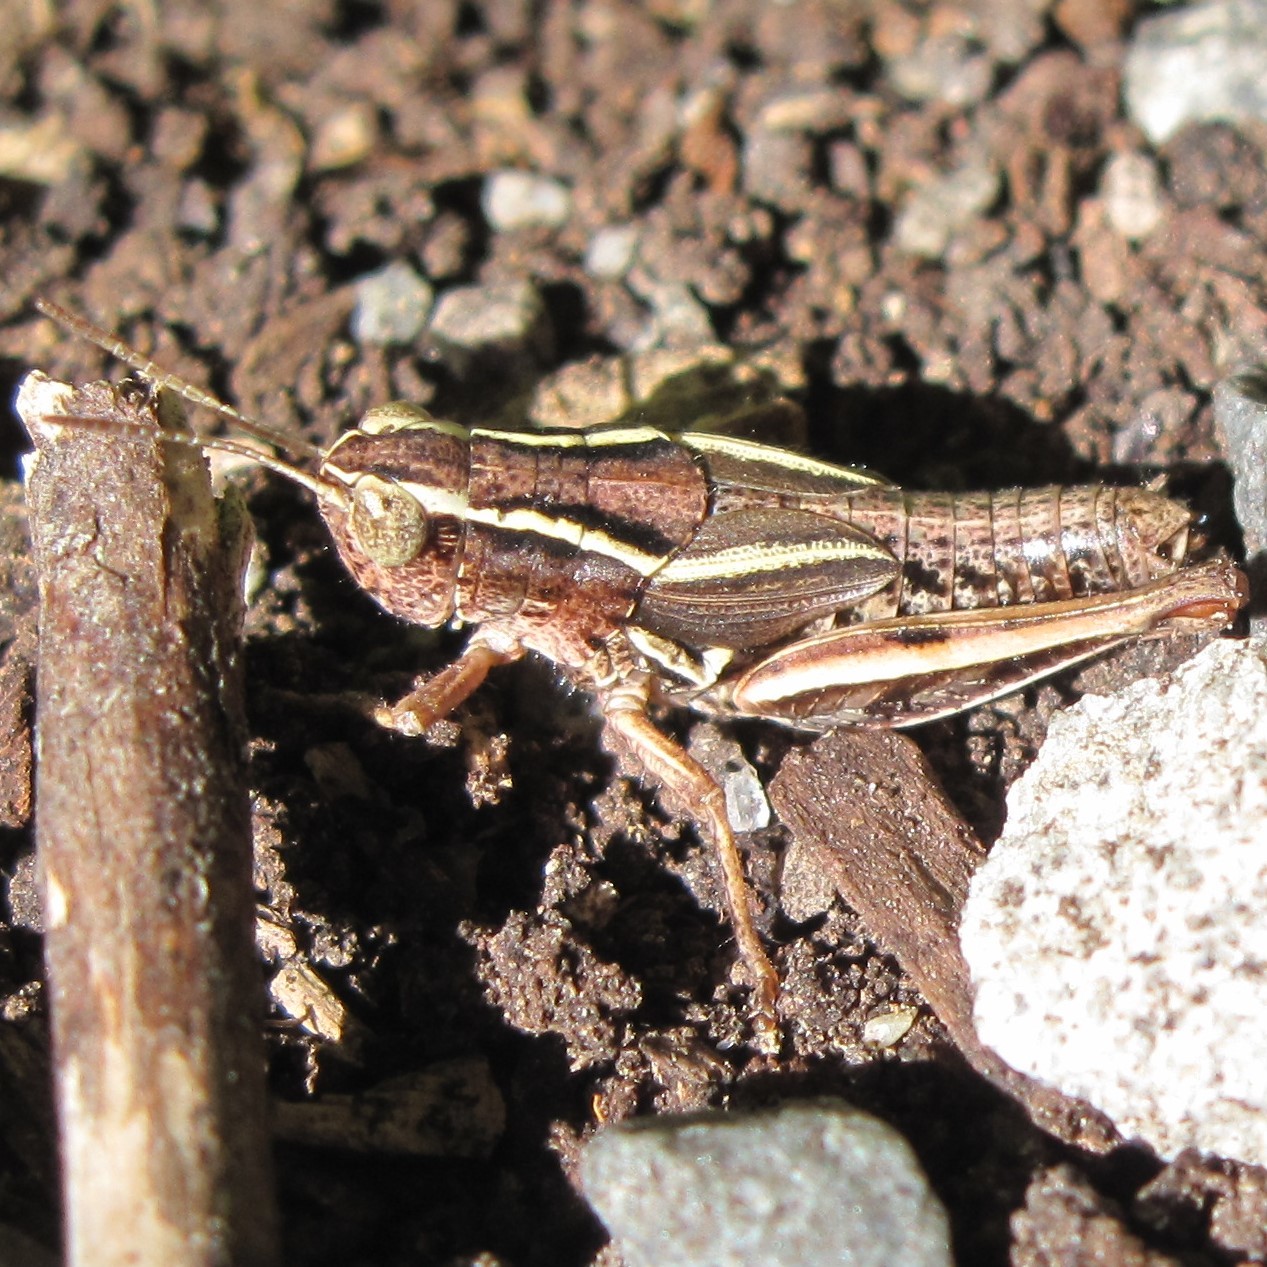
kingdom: Animalia
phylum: Arthropoda
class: Insecta
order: Orthoptera
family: Acrididae
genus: Phaulacridium
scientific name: Phaulacridium marginale
